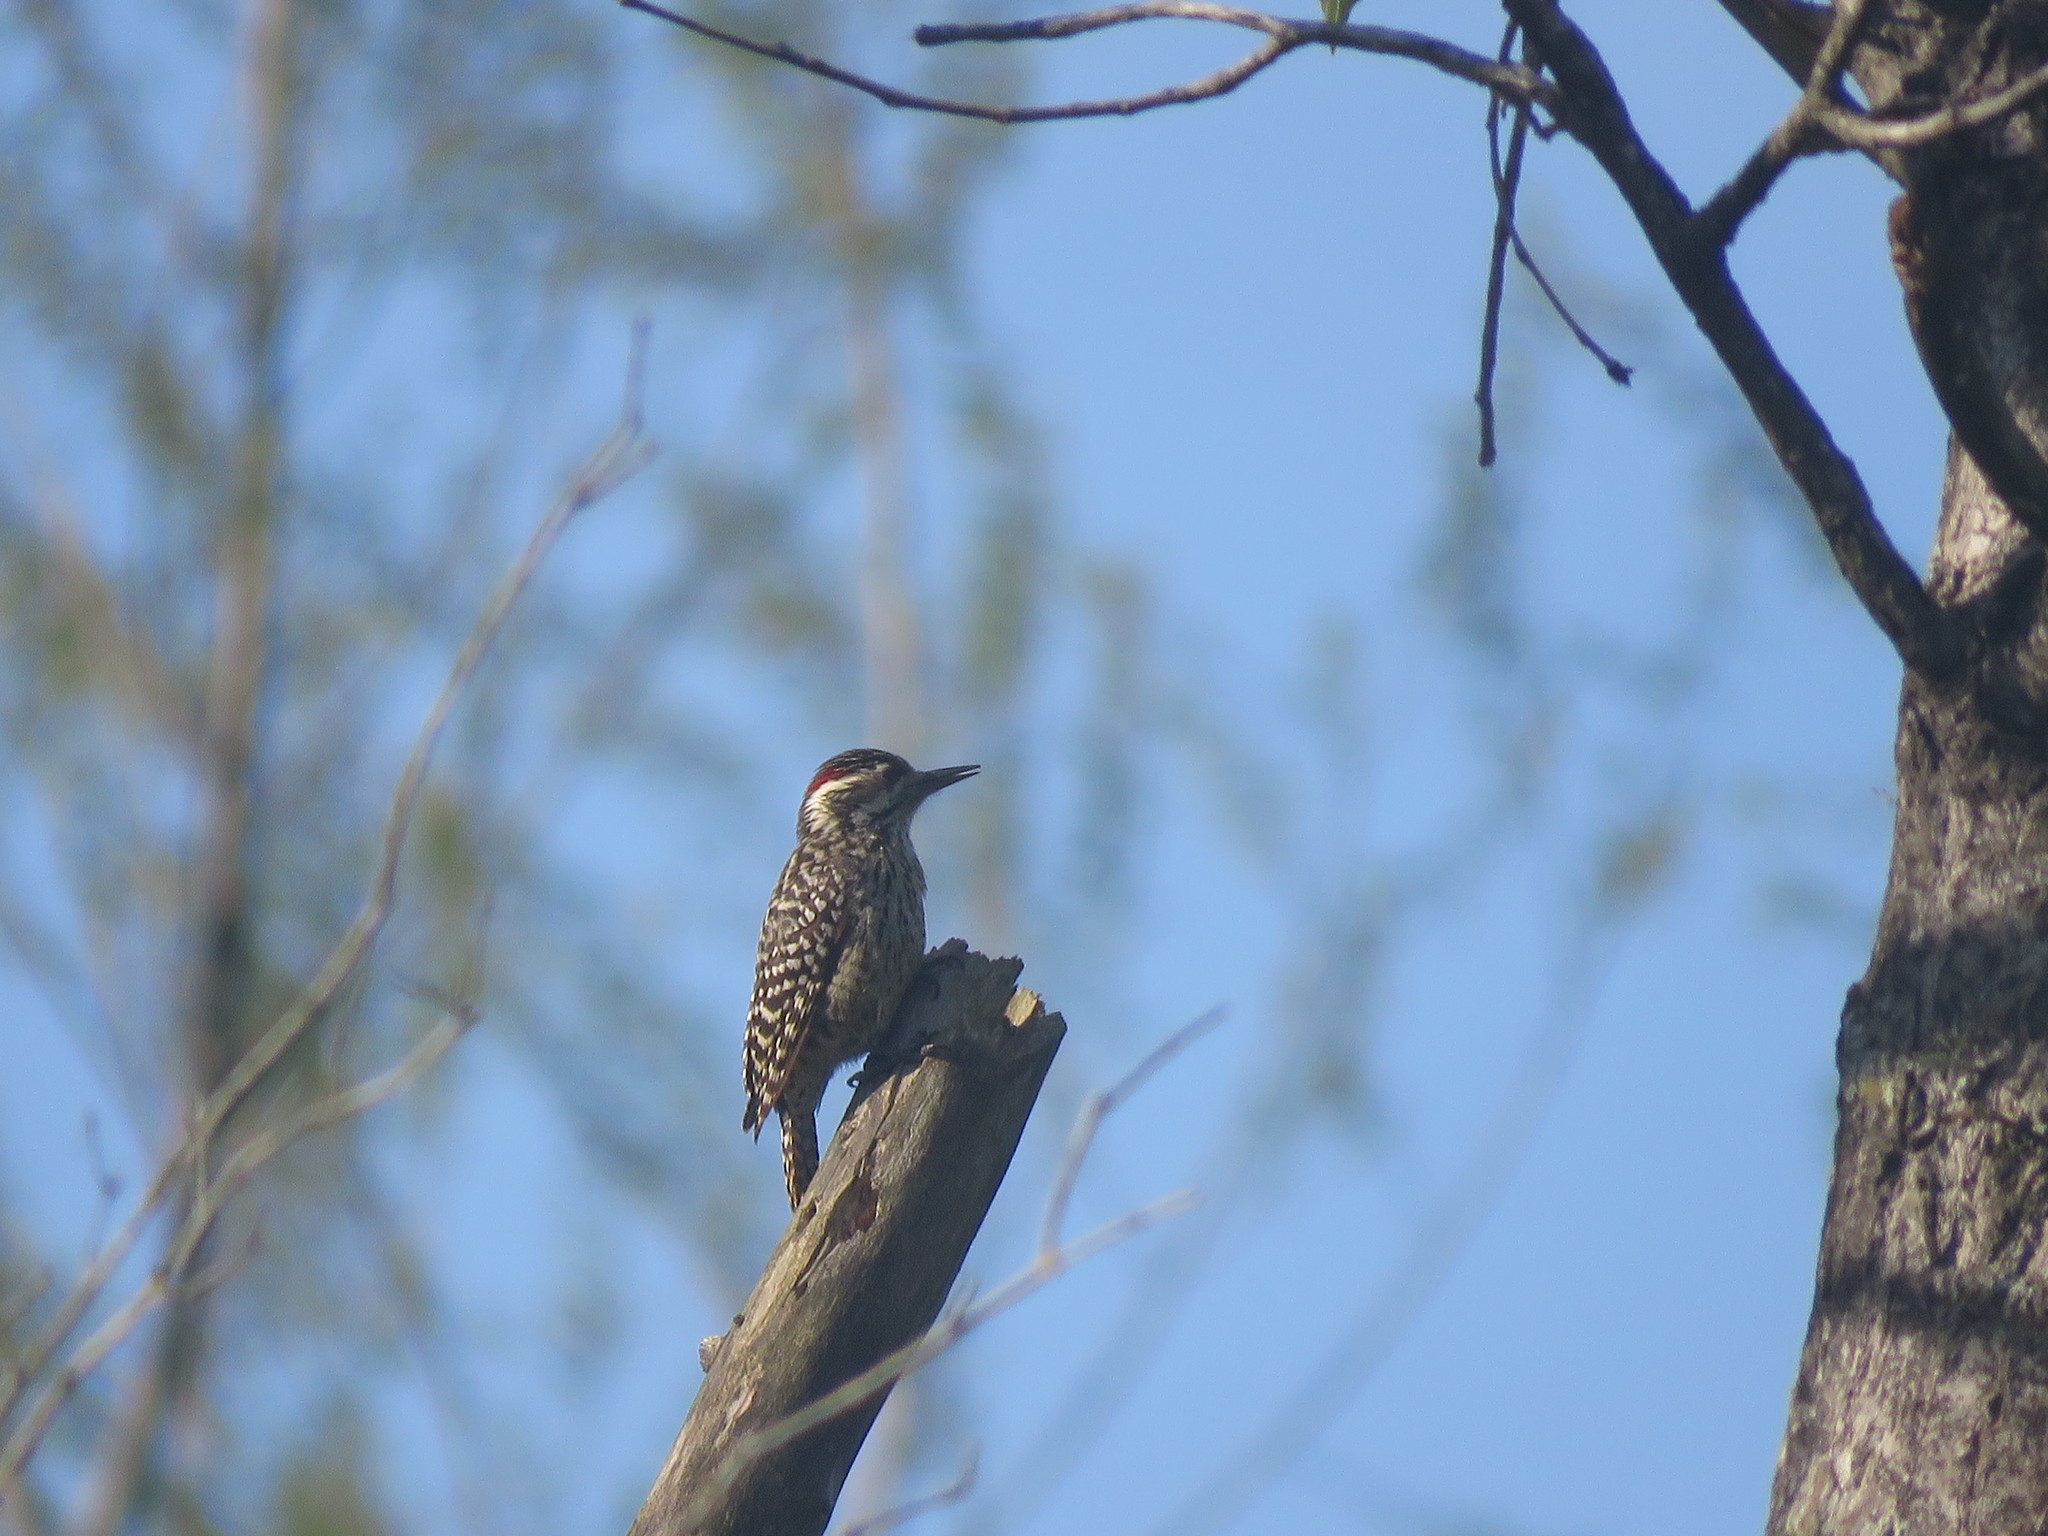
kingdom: Animalia
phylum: Chordata
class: Aves
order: Piciformes
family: Picidae
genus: Veniliornis
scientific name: Veniliornis mixtus
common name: Checkered woodpecker
